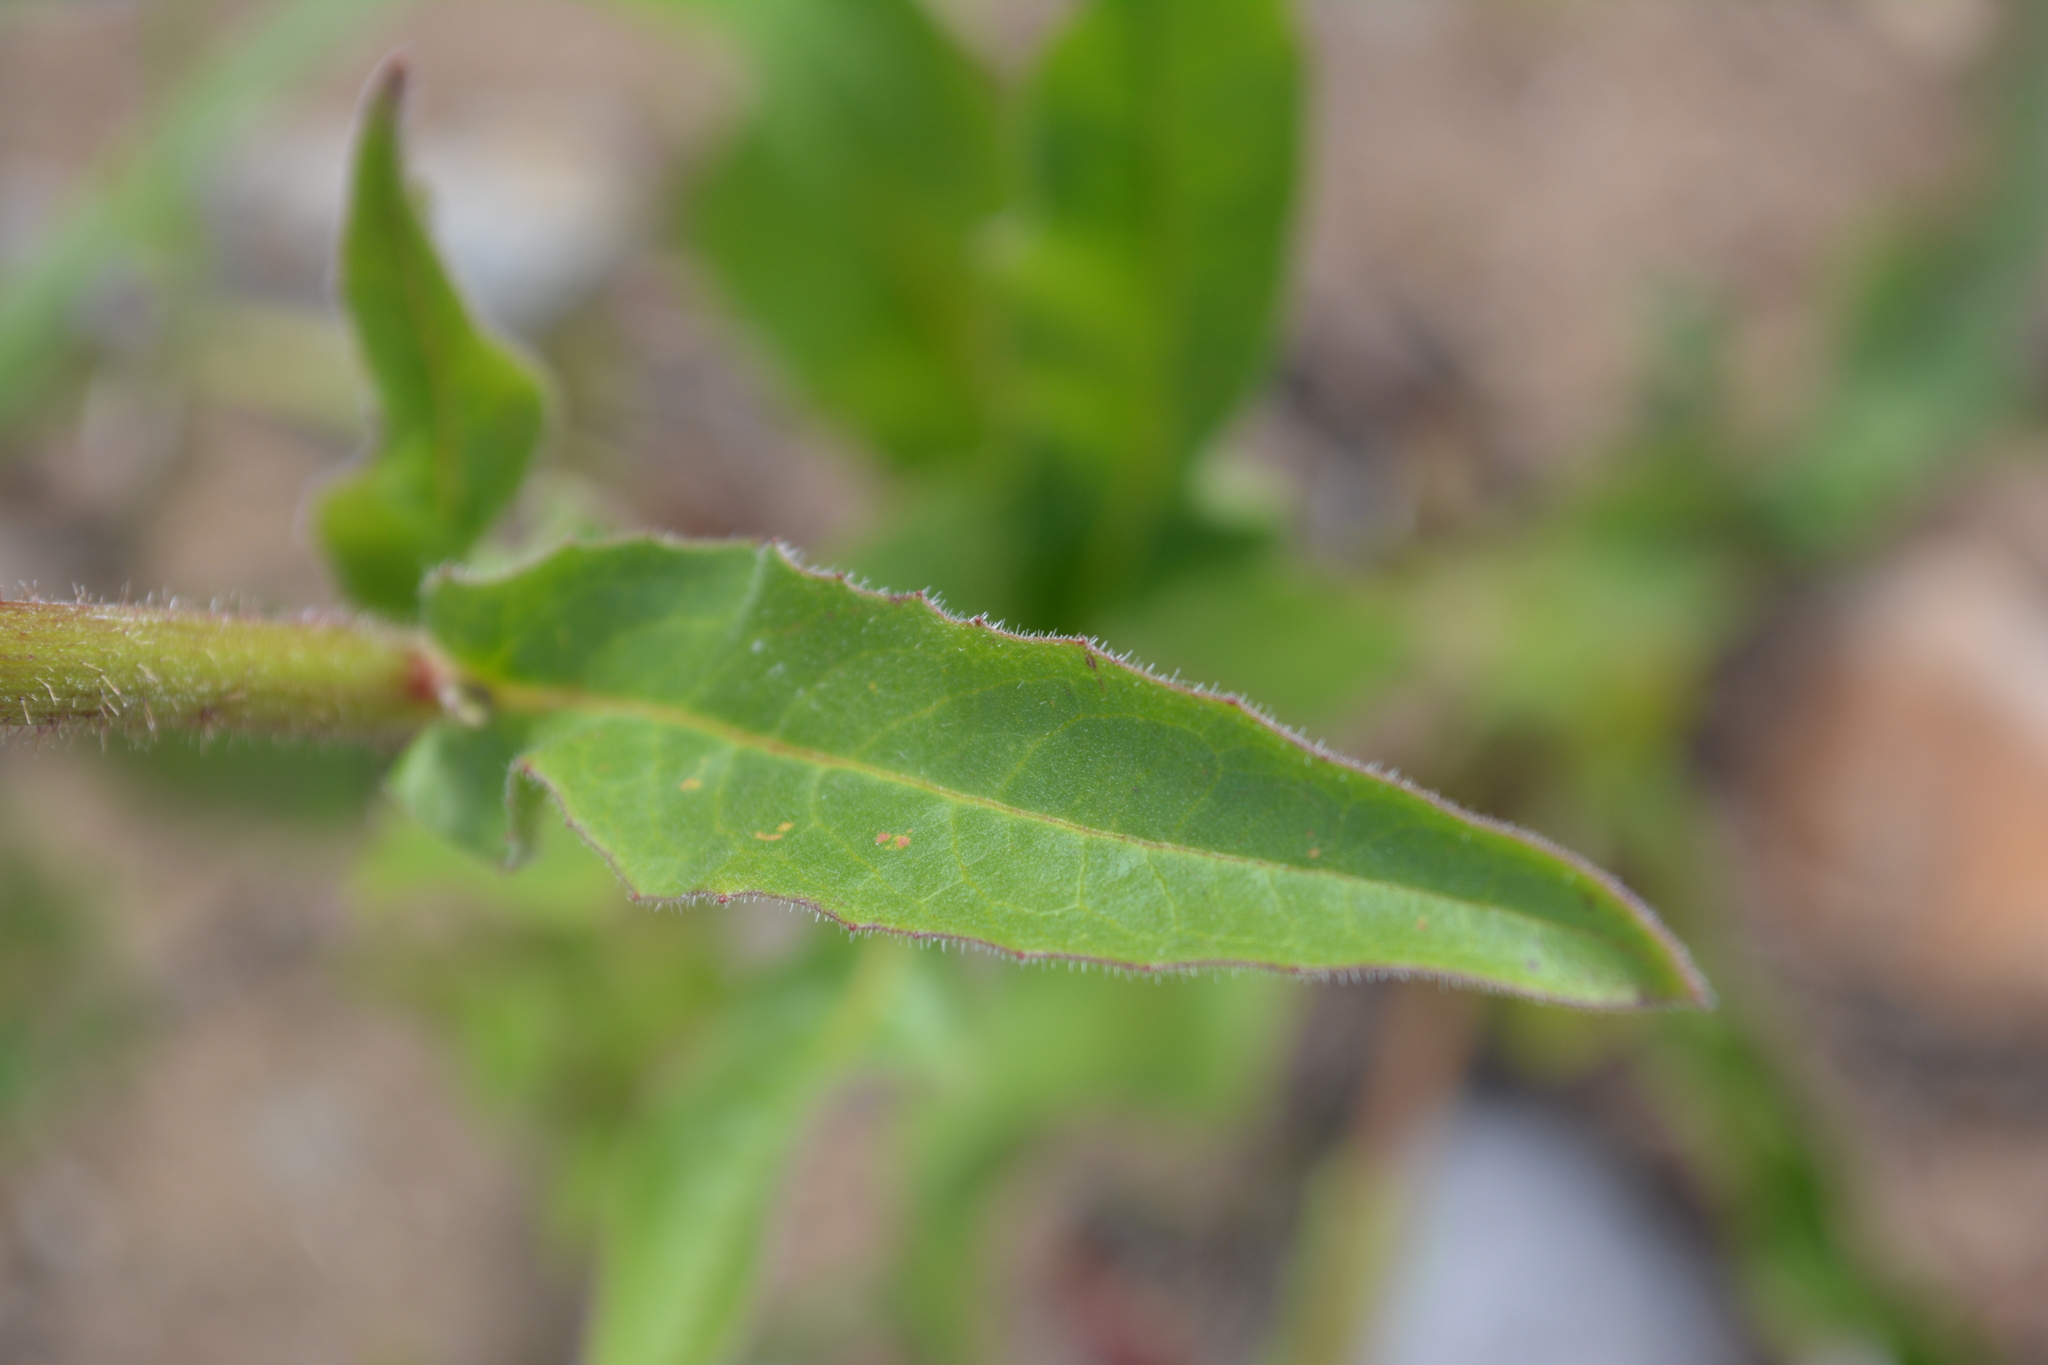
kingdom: Plantae
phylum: Tracheophyta
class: Magnoliopsida
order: Asterales
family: Asteraceae
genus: Picris
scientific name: Picris hieracioides
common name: Hawkweed oxtongue
